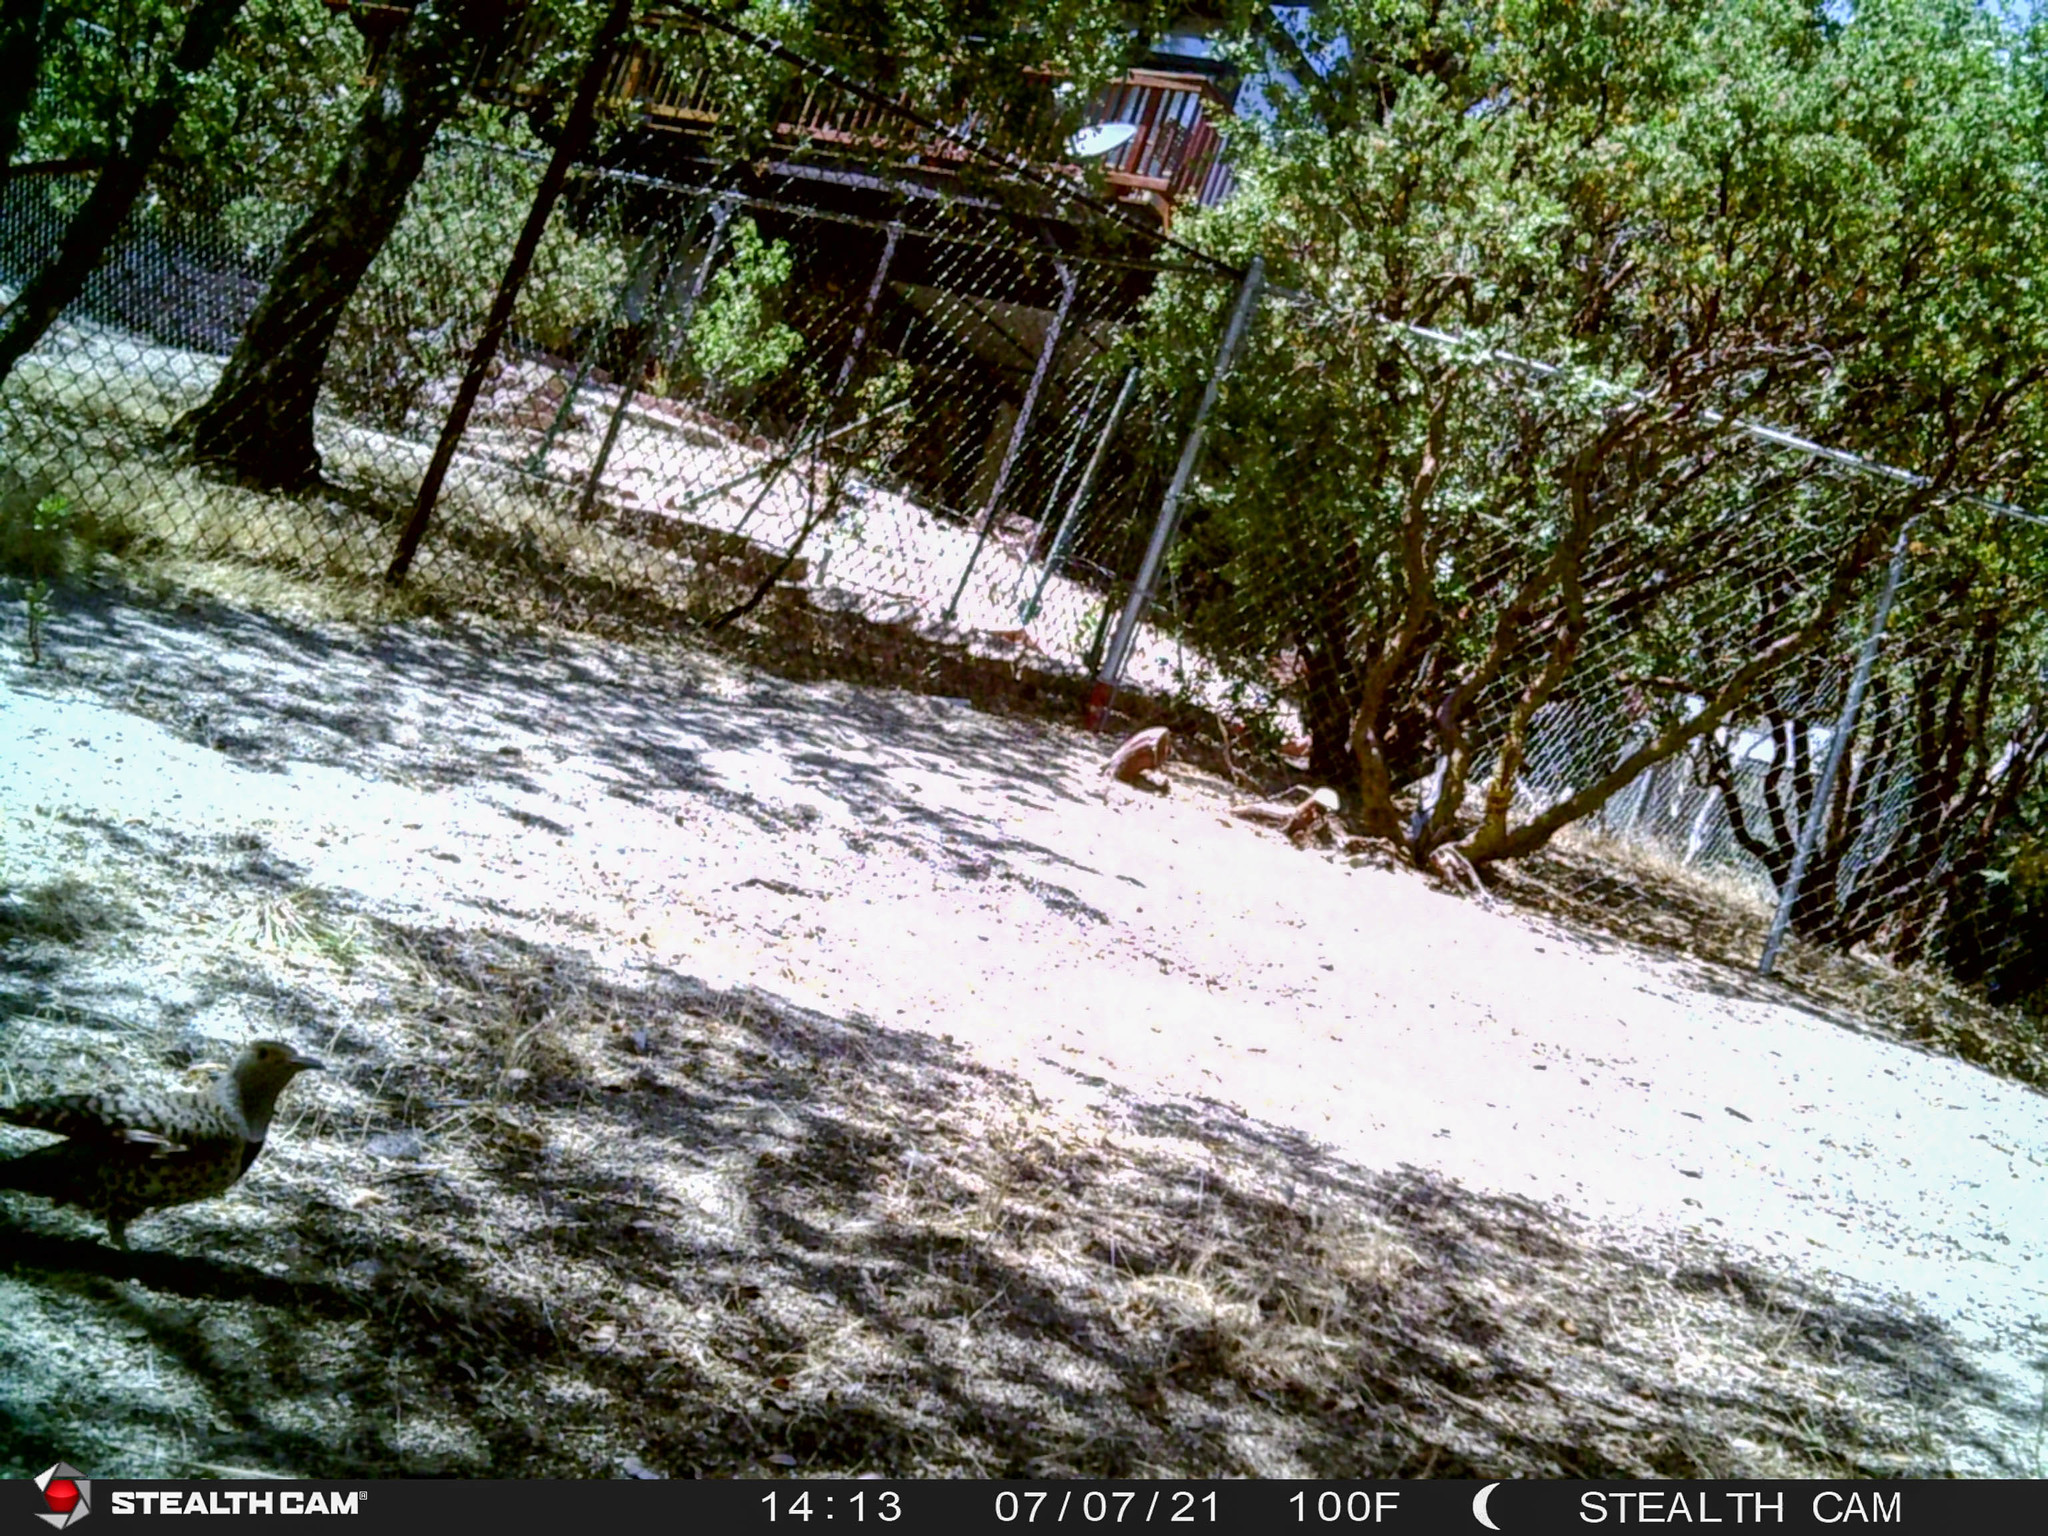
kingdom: Animalia
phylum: Chordata
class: Aves
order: Piciformes
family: Picidae
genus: Colaptes
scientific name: Colaptes auratus
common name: Northern flicker
